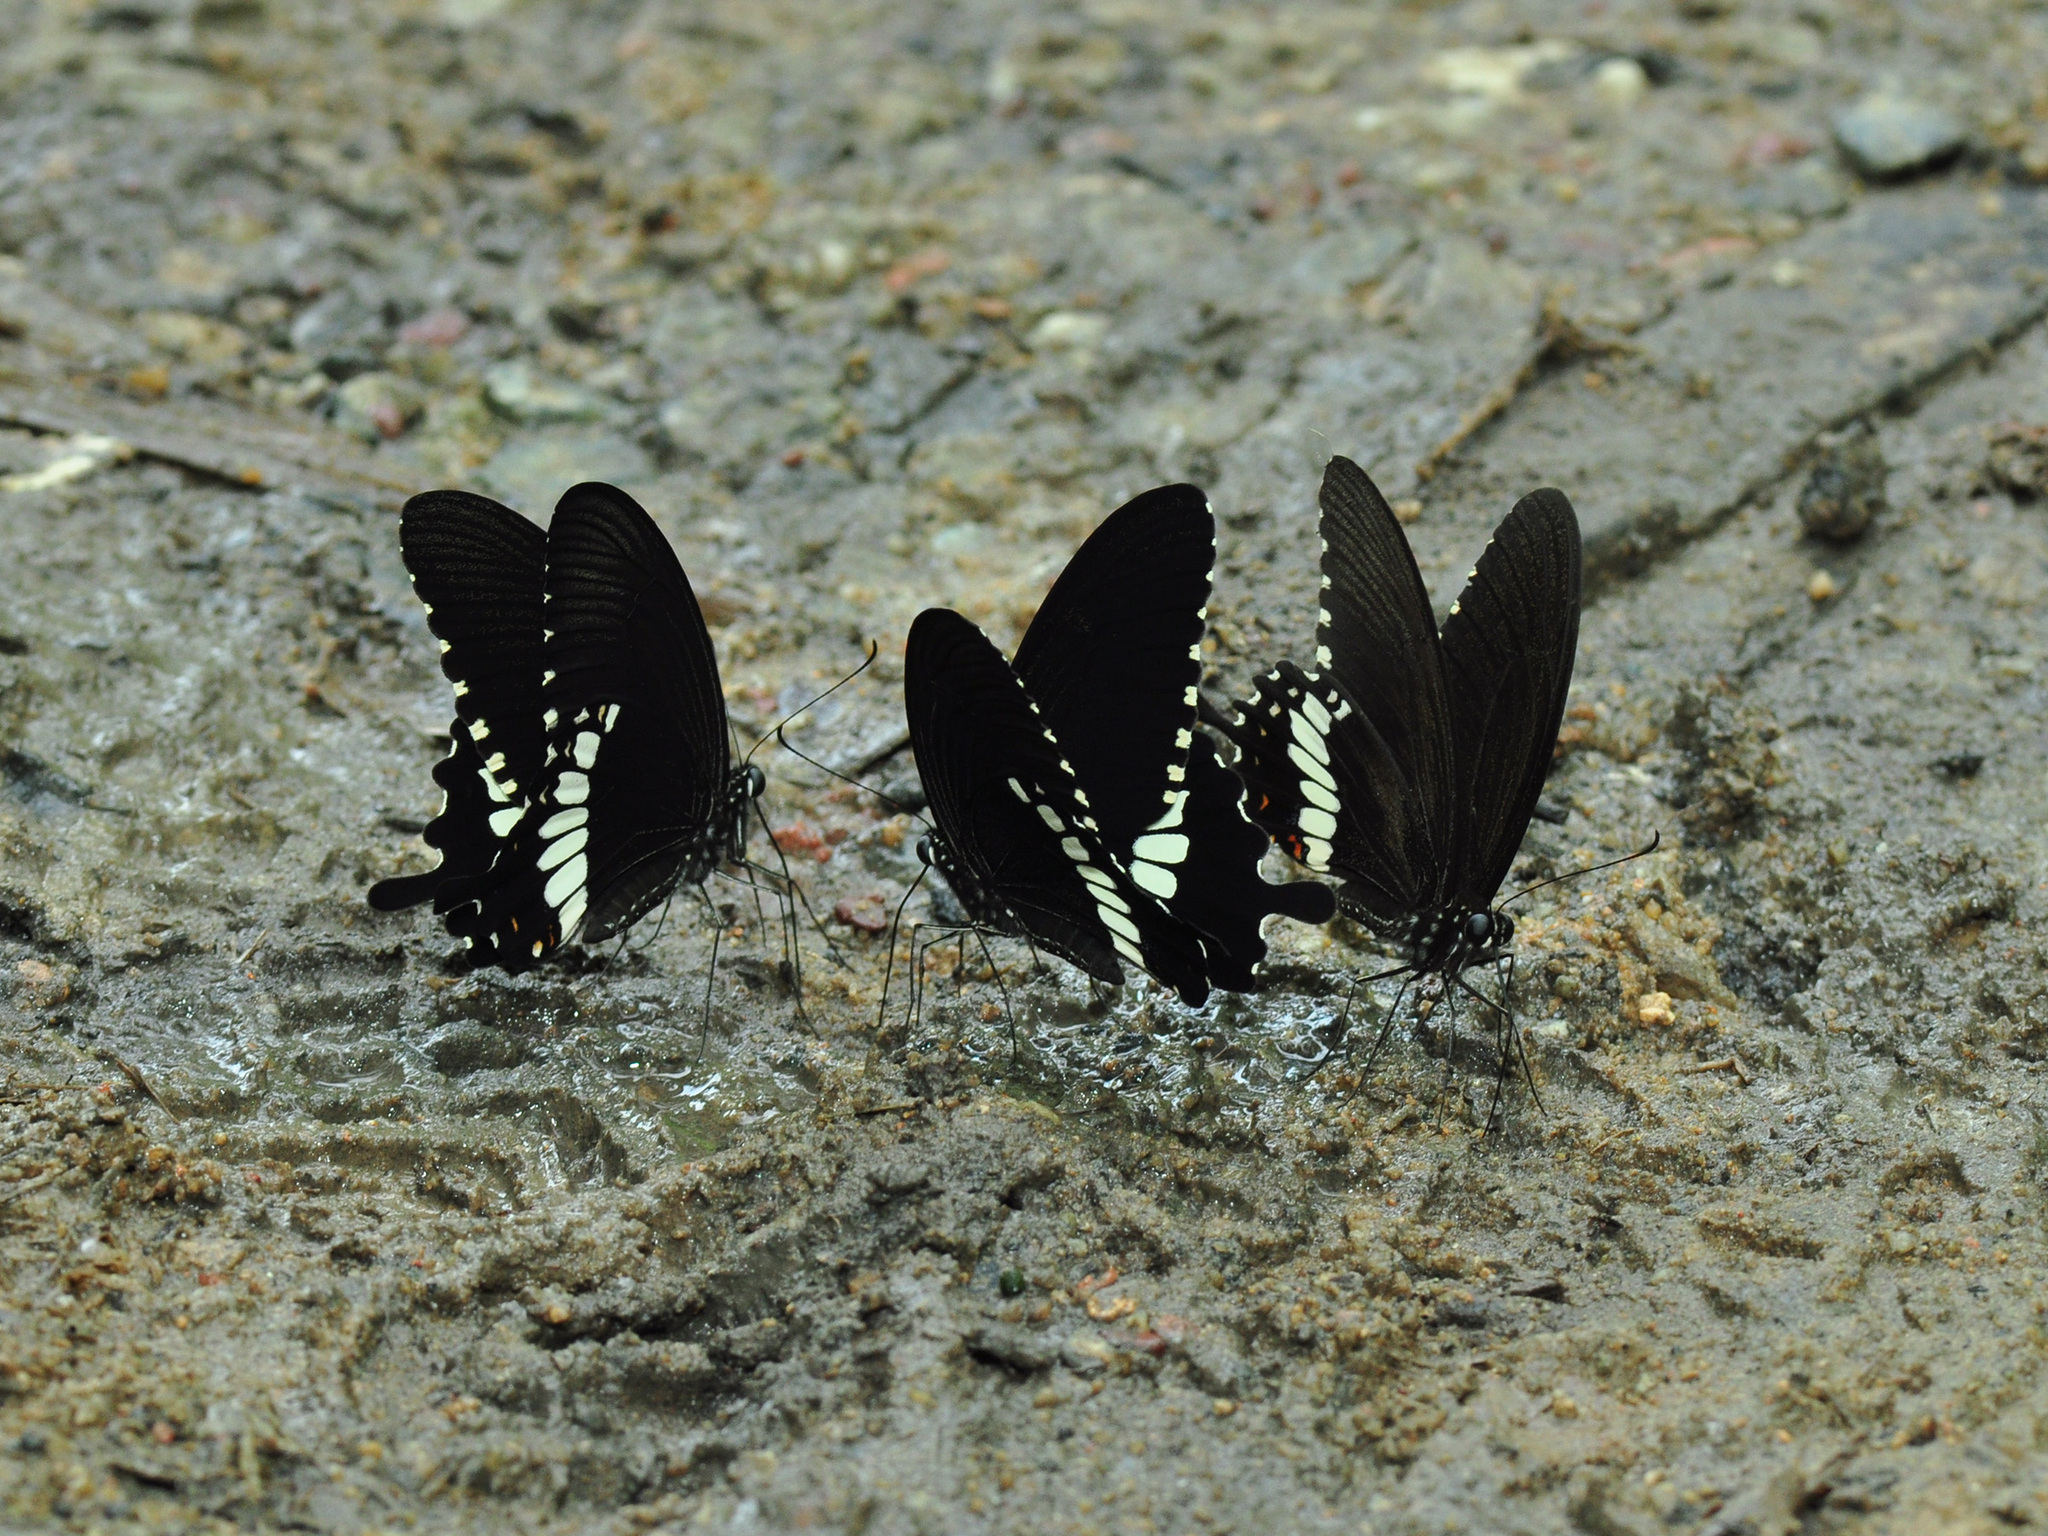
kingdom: Animalia
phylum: Arthropoda
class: Insecta
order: Lepidoptera
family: Papilionidae
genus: Papilio
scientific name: Papilio polytes
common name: Common mormon
